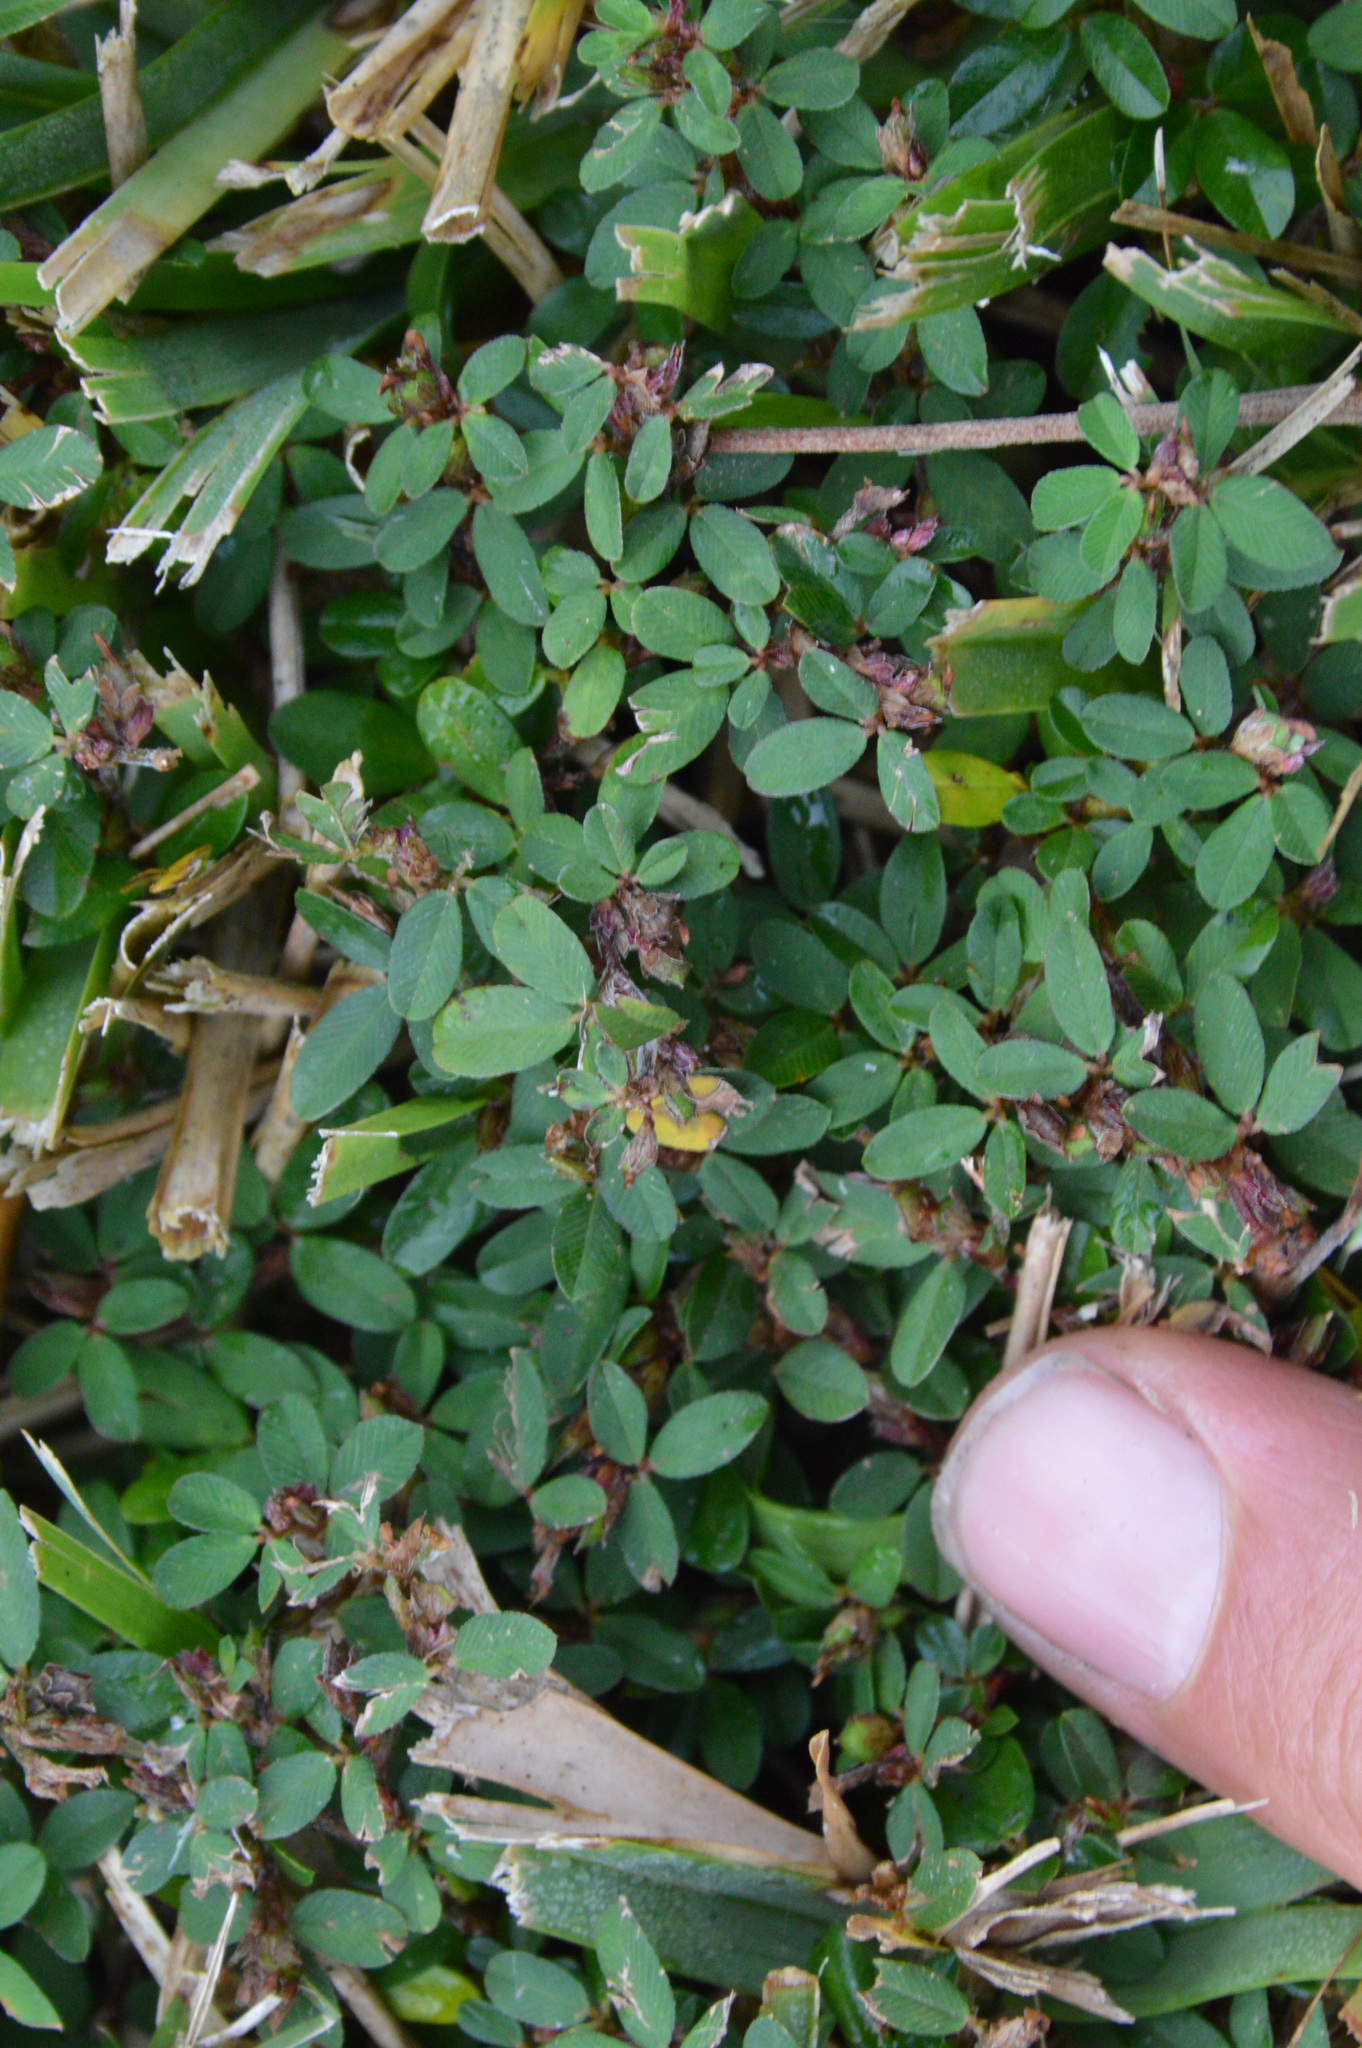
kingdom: Plantae
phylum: Tracheophyta
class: Magnoliopsida
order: Fabales
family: Fabaceae
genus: Kummerowia
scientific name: Kummerowia striata
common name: Japanese clover
